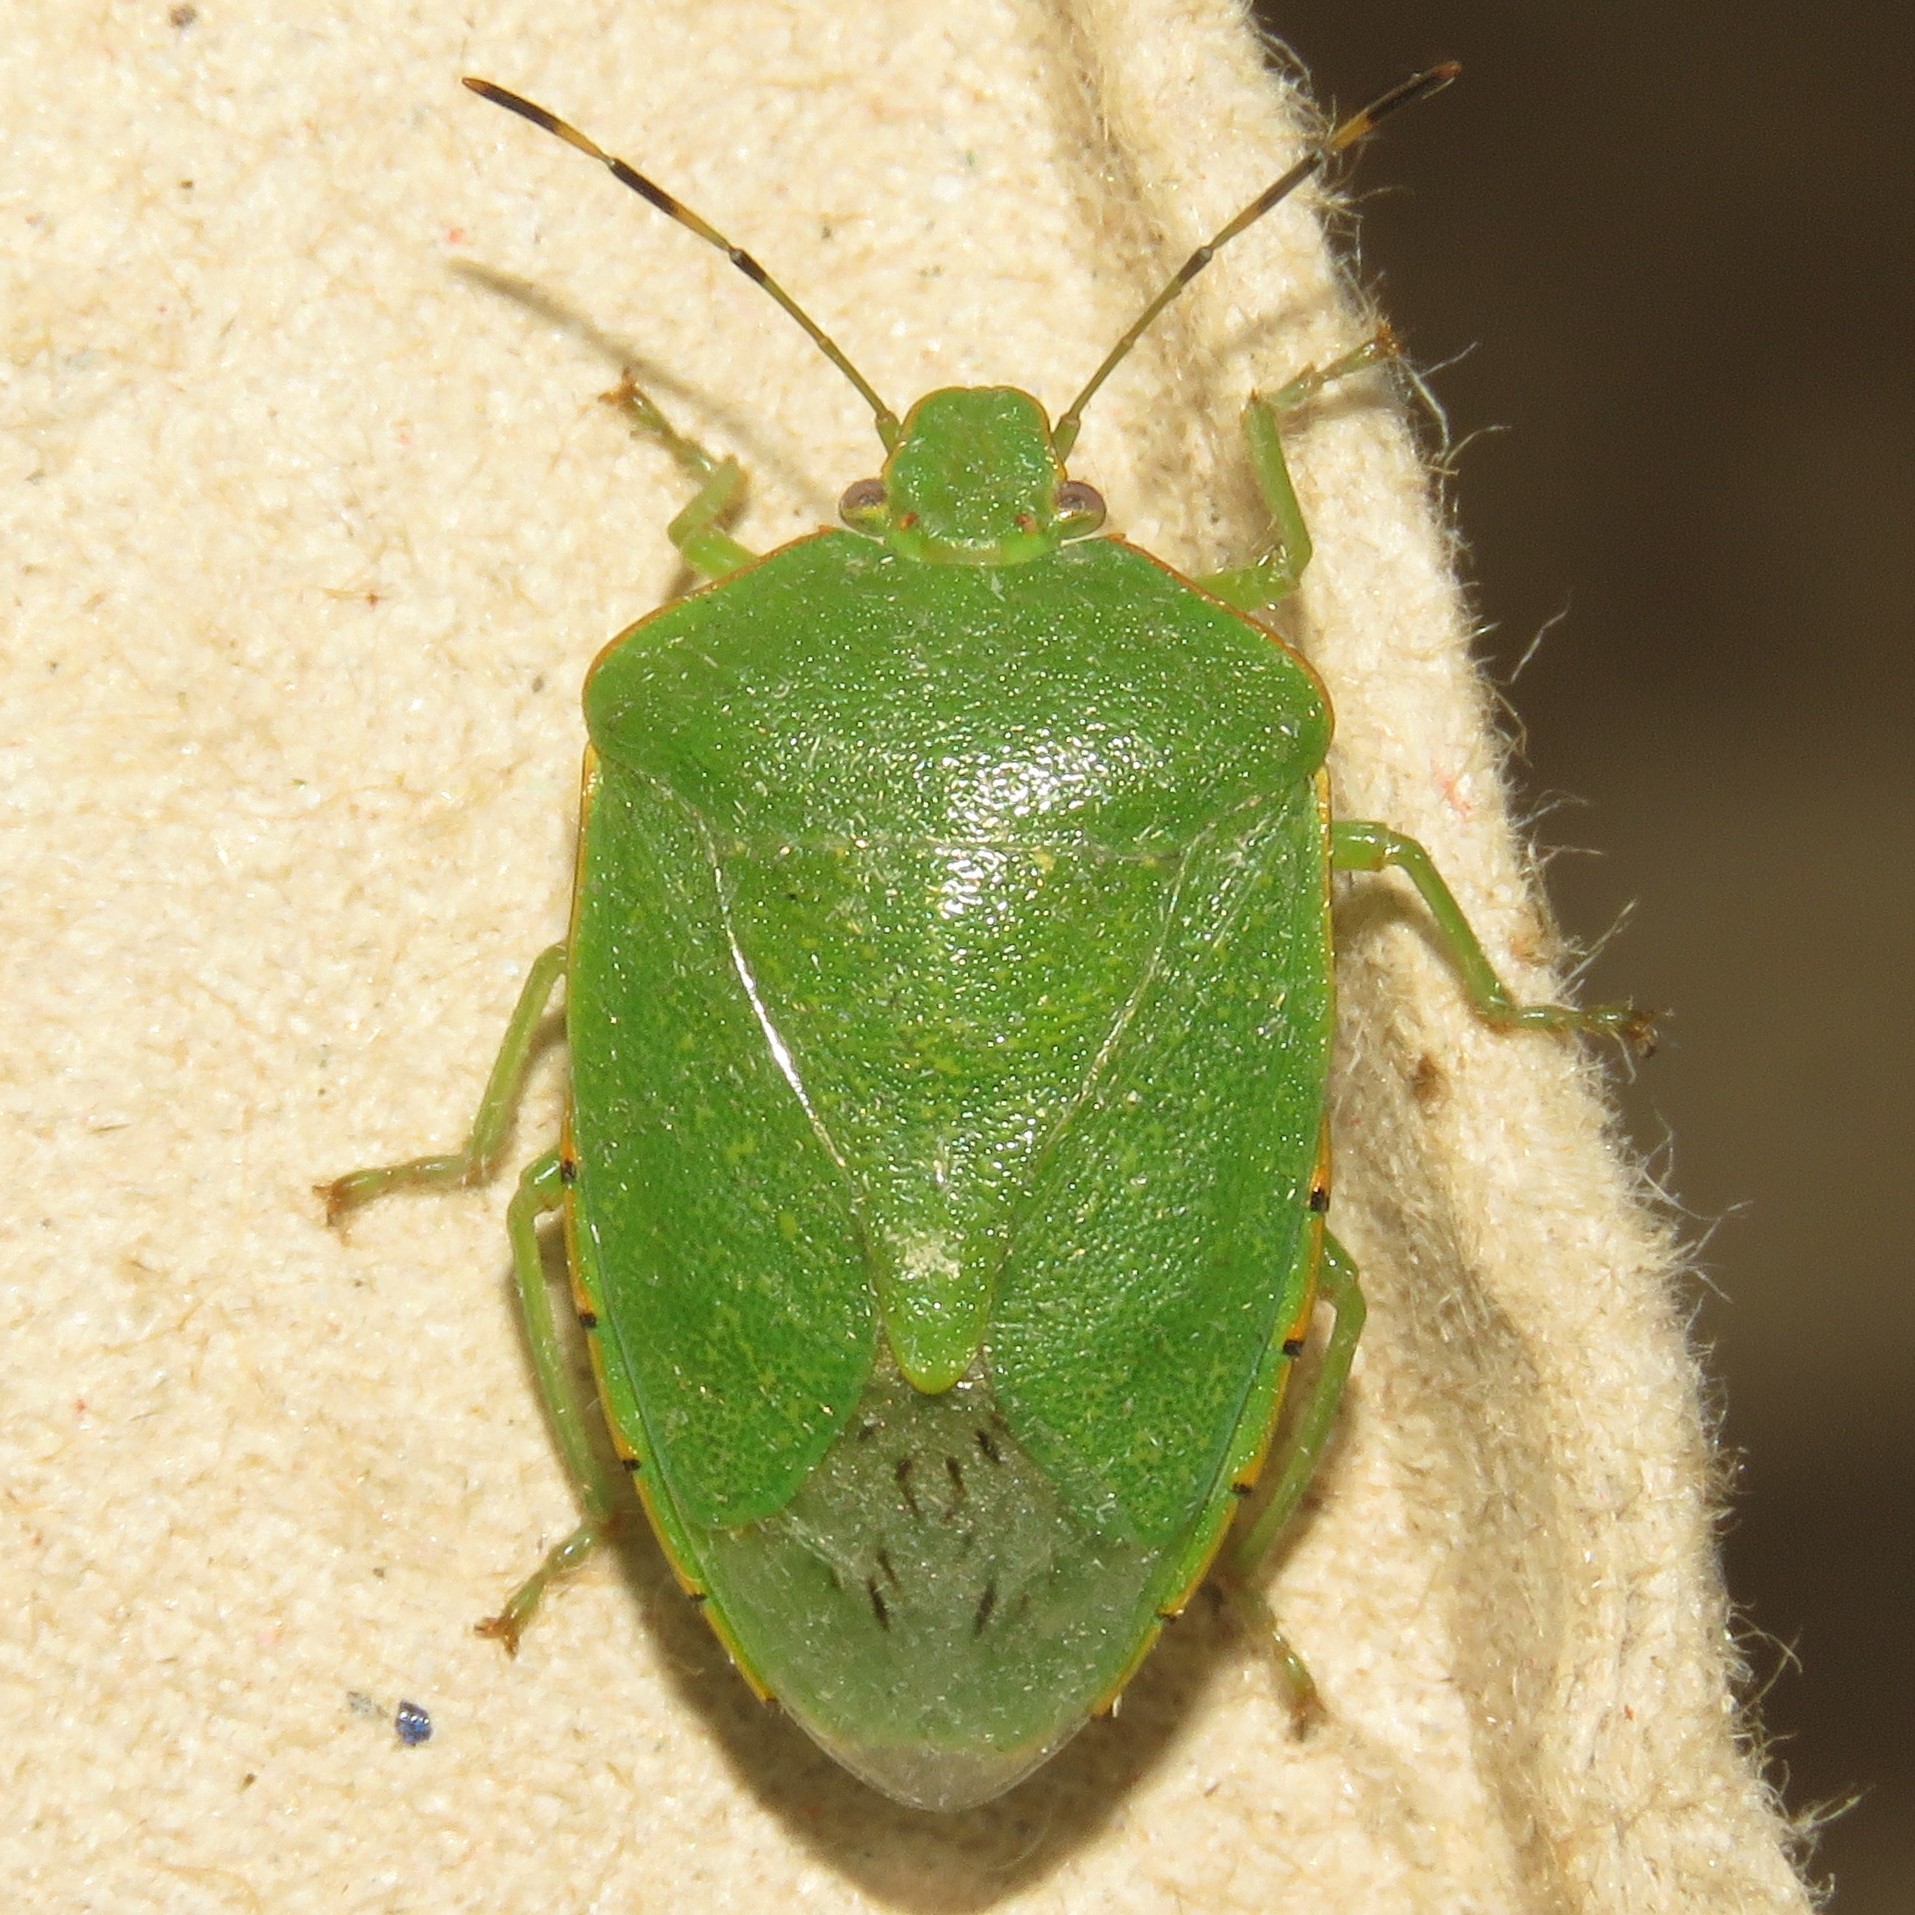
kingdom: Animalia
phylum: Arthropoda
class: Insecta
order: Hemiptera
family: Pentatomidae
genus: Chinavia
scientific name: Chinavia hilaris
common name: Green stink bug
